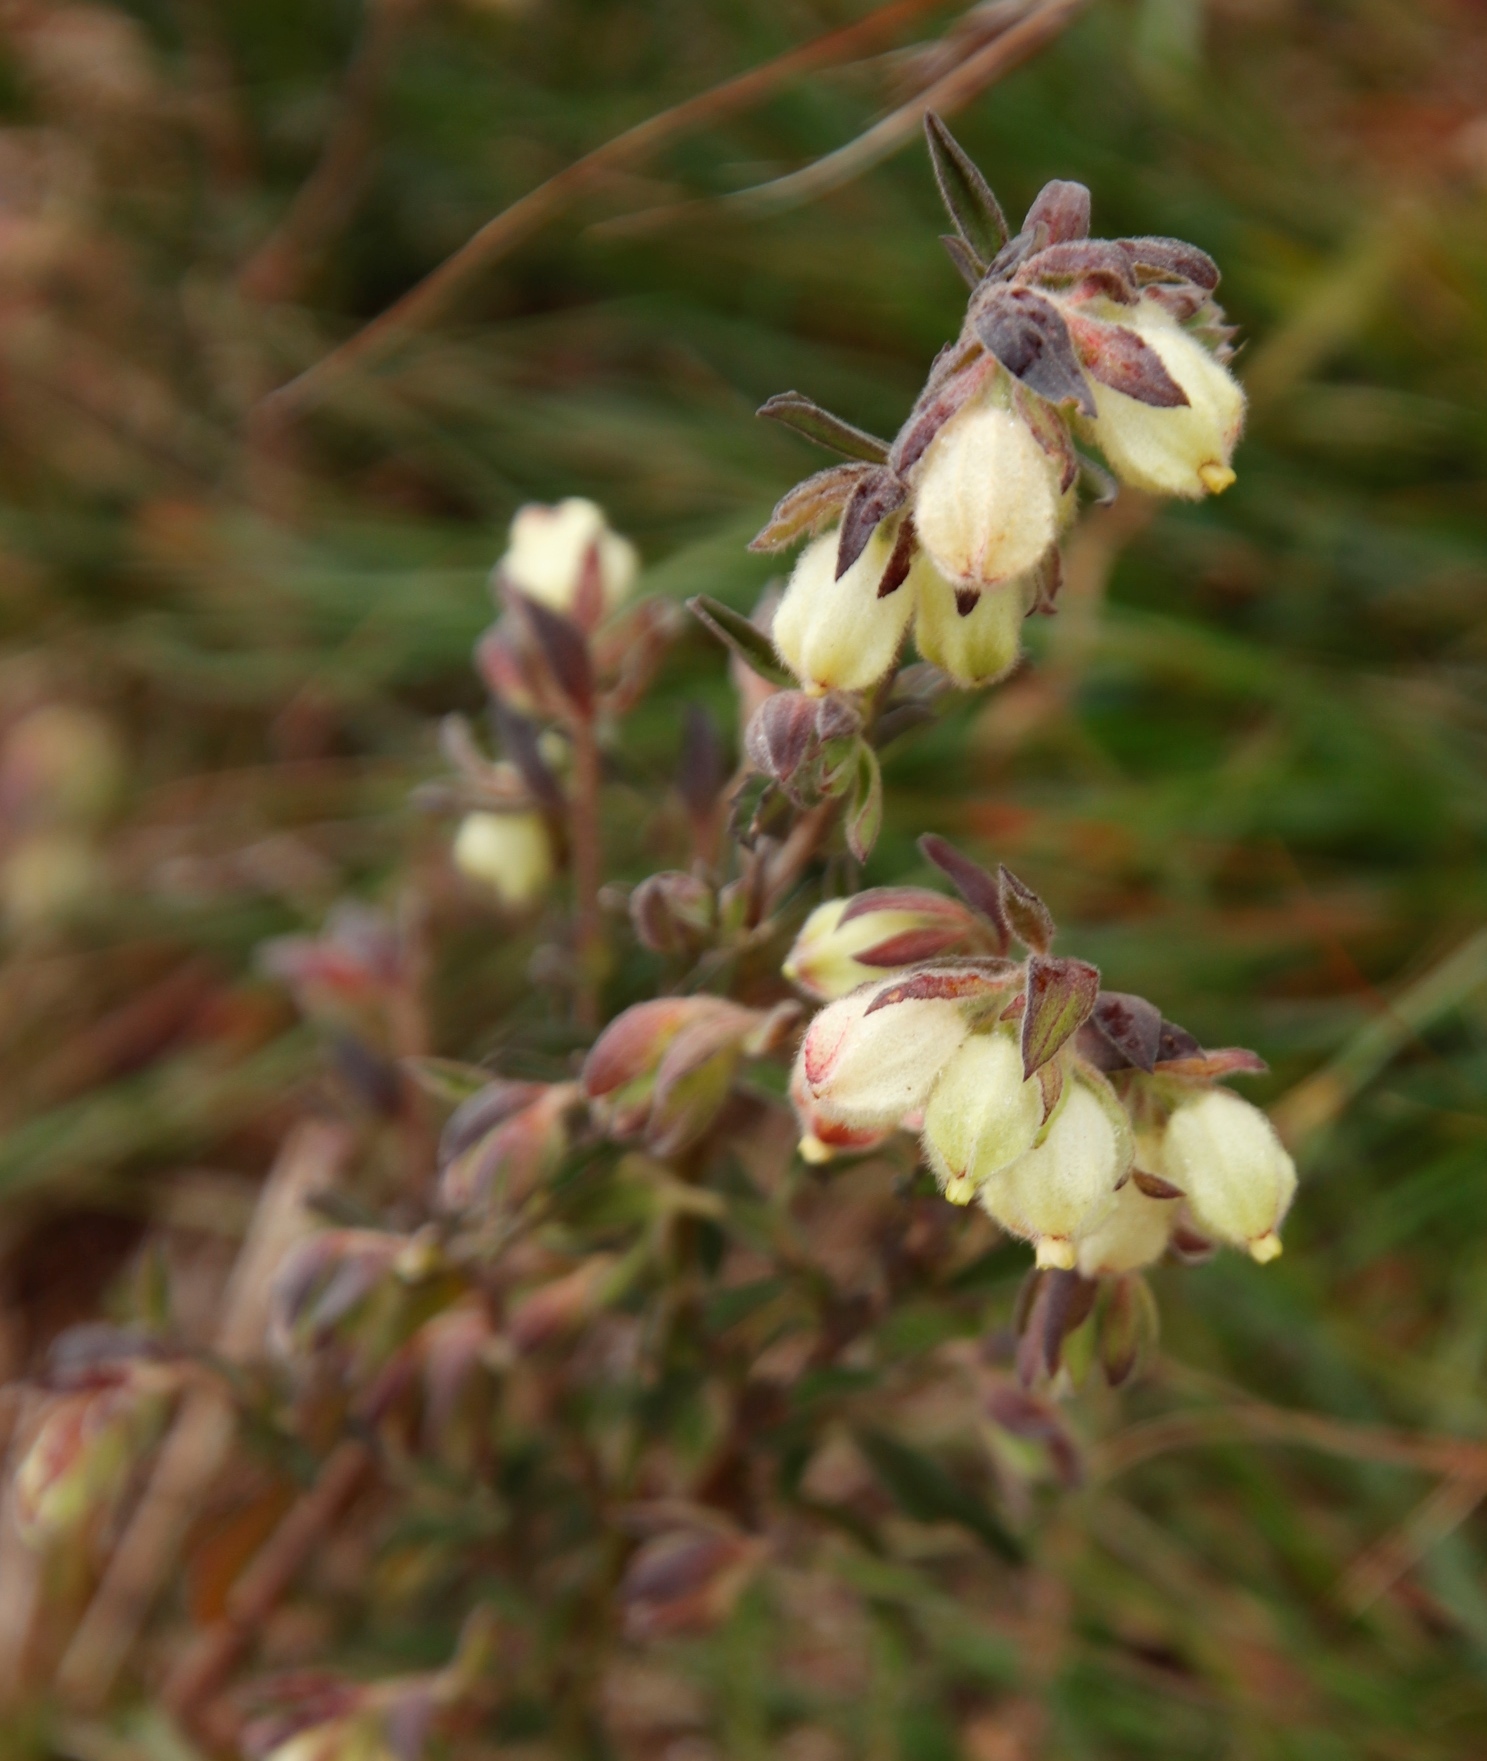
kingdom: Plantae
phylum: Tracheophyta
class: Magnoliopsida
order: Malvales
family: Malvaceae
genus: Hermannia
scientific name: Hermannia hyssopifolia
